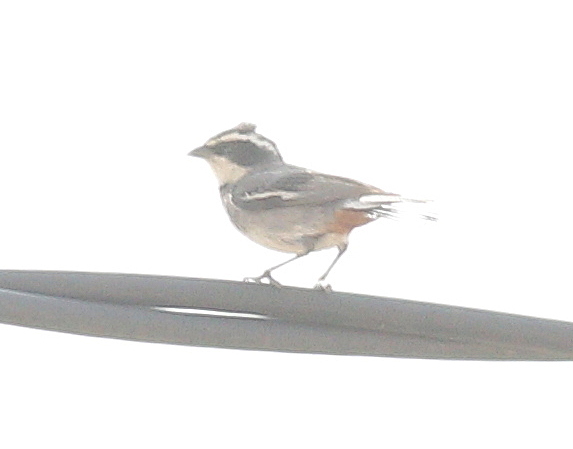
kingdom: Animalia
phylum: Chordata
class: Aves
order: Passeriformes
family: Thraupidae
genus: Microspingus
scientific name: Microspingus torquatus
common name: Ringed warbling-finch
